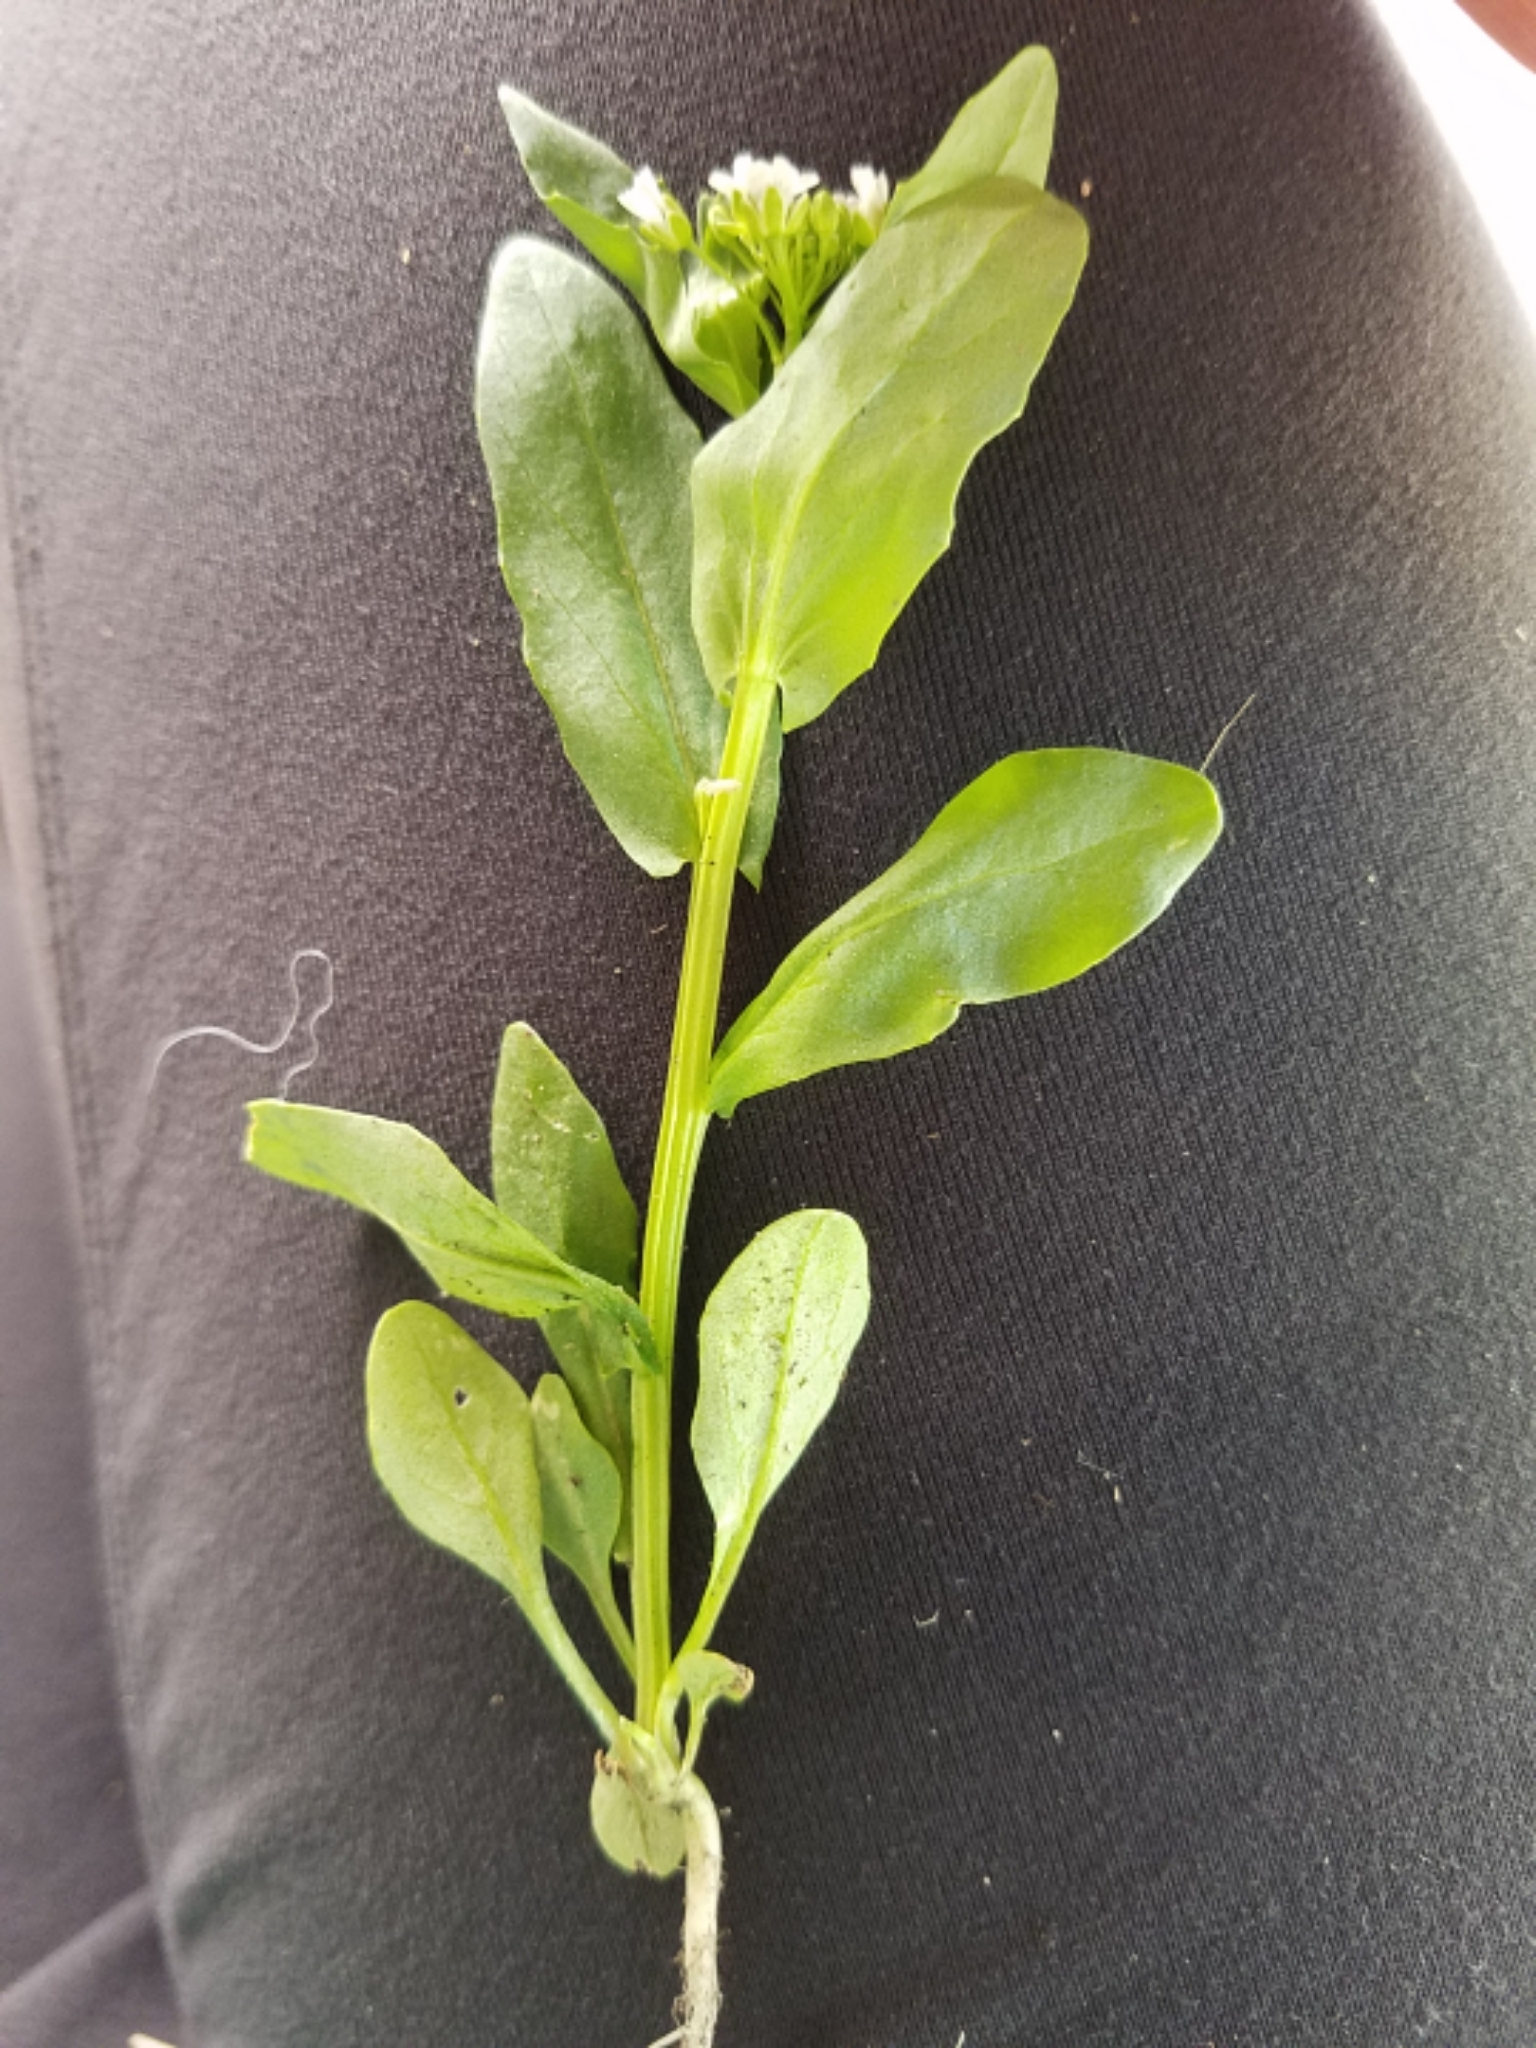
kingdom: Plantae
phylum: Tracheophyta
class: Magnoliopsida
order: Brassicales
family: Brassicaceae
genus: Thlaspi
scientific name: Thlaspi arvense
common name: Field pennycress
